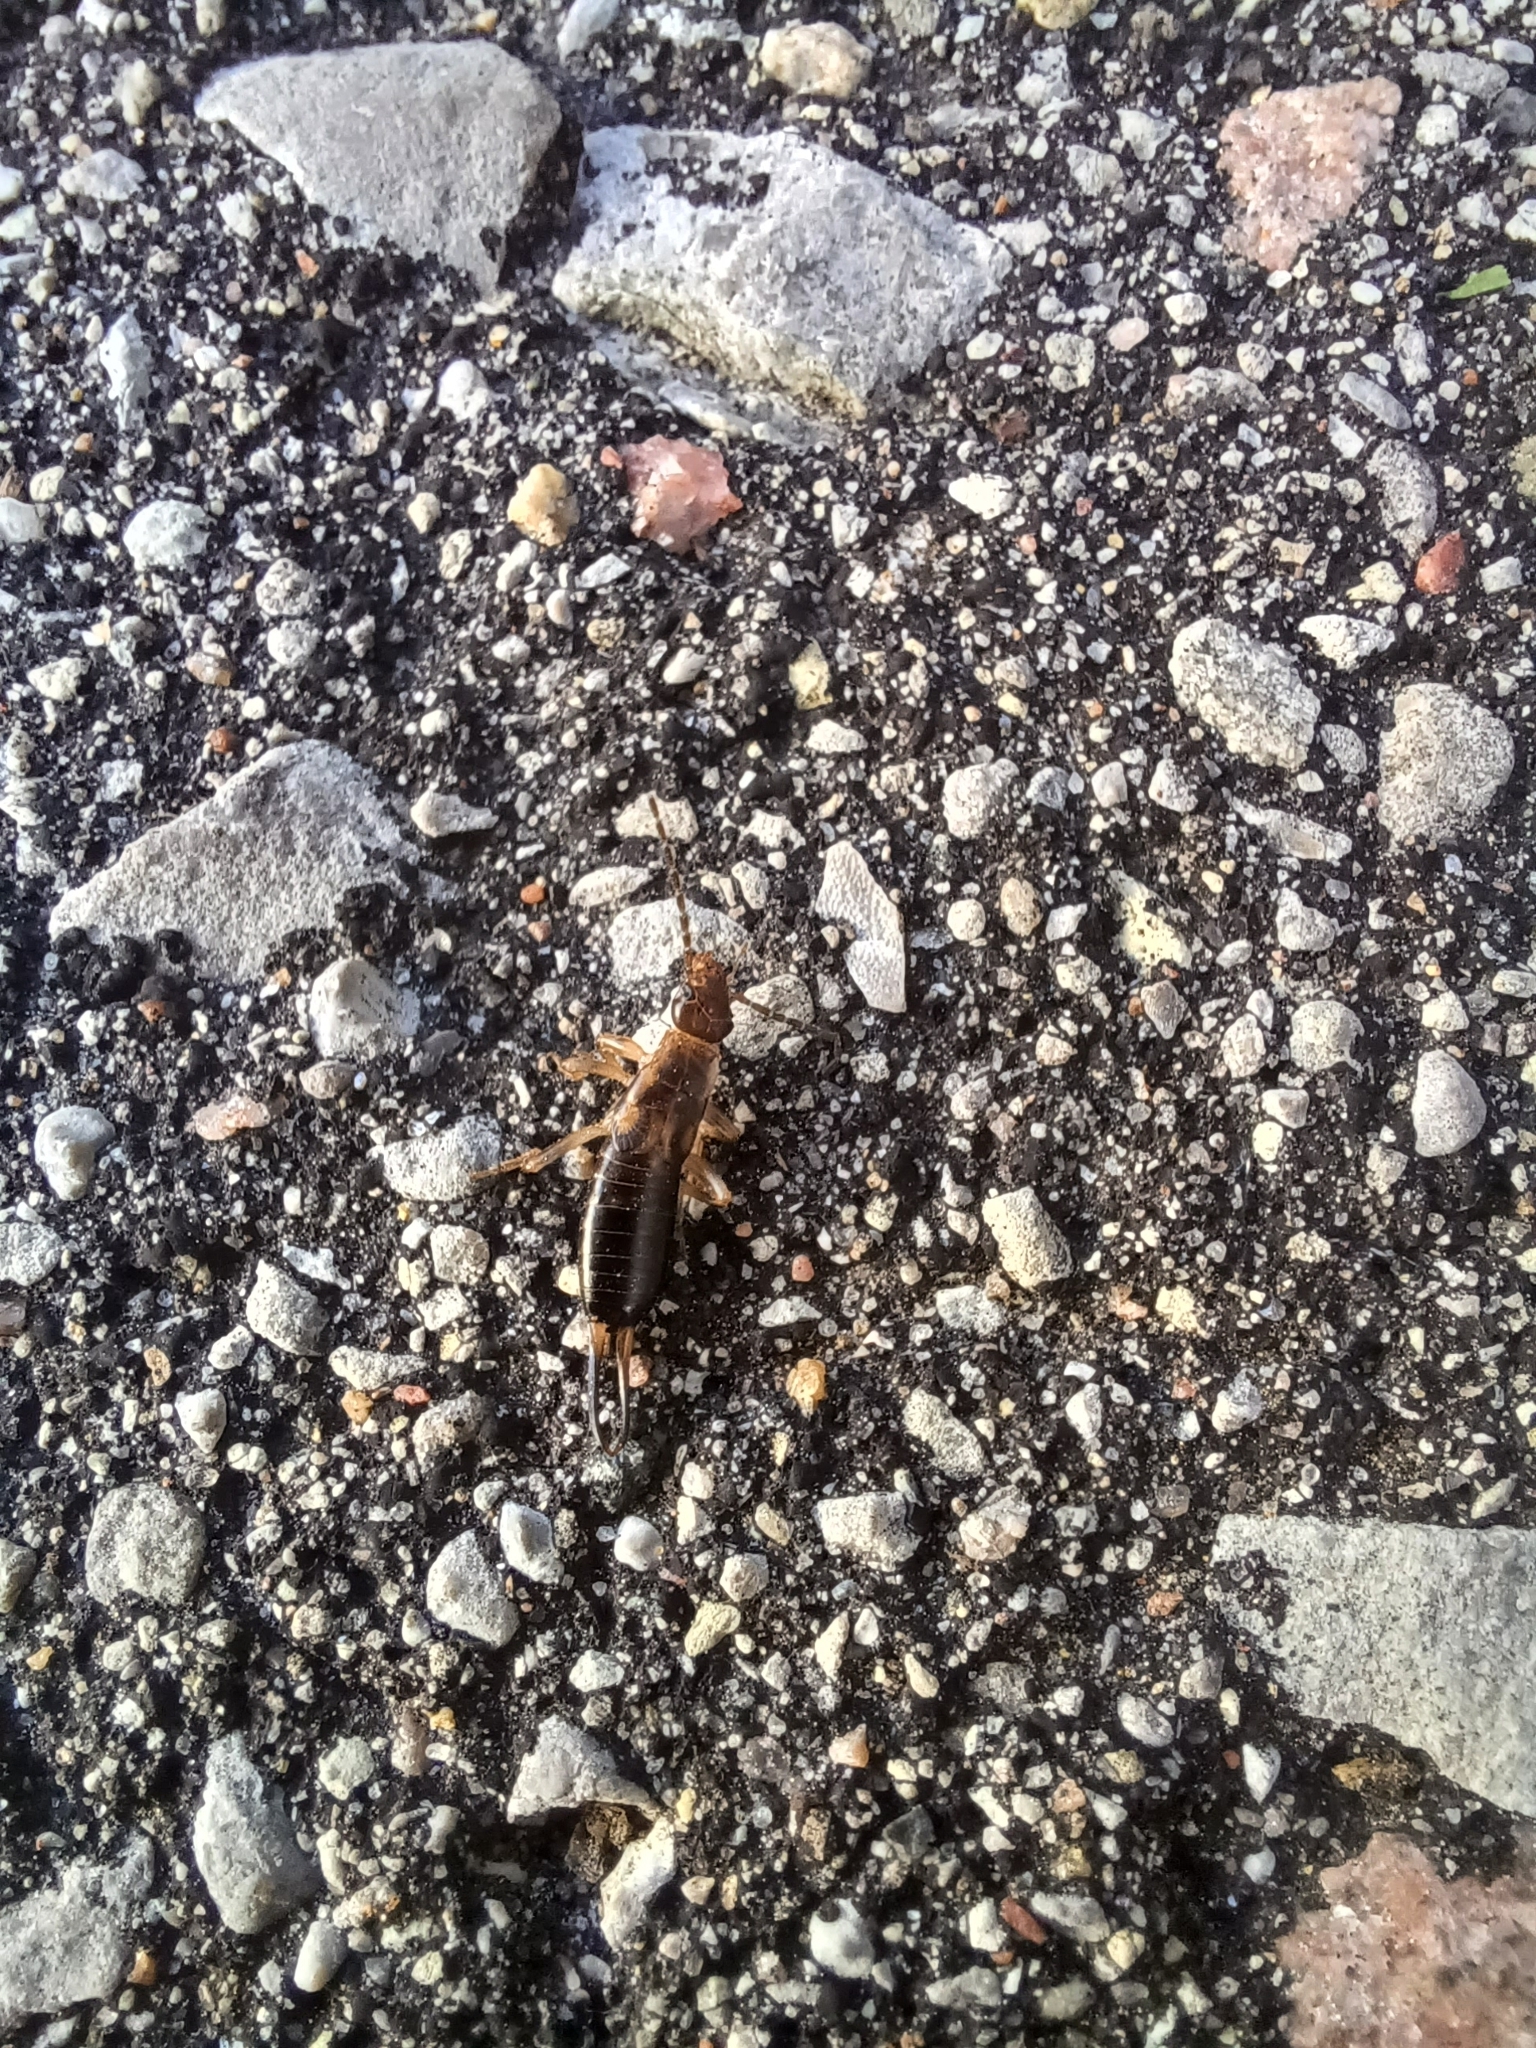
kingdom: Animalia
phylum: Arthropoda
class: Insecta
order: Dermaptera
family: Forficulidae
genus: Forficula
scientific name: Forficula
